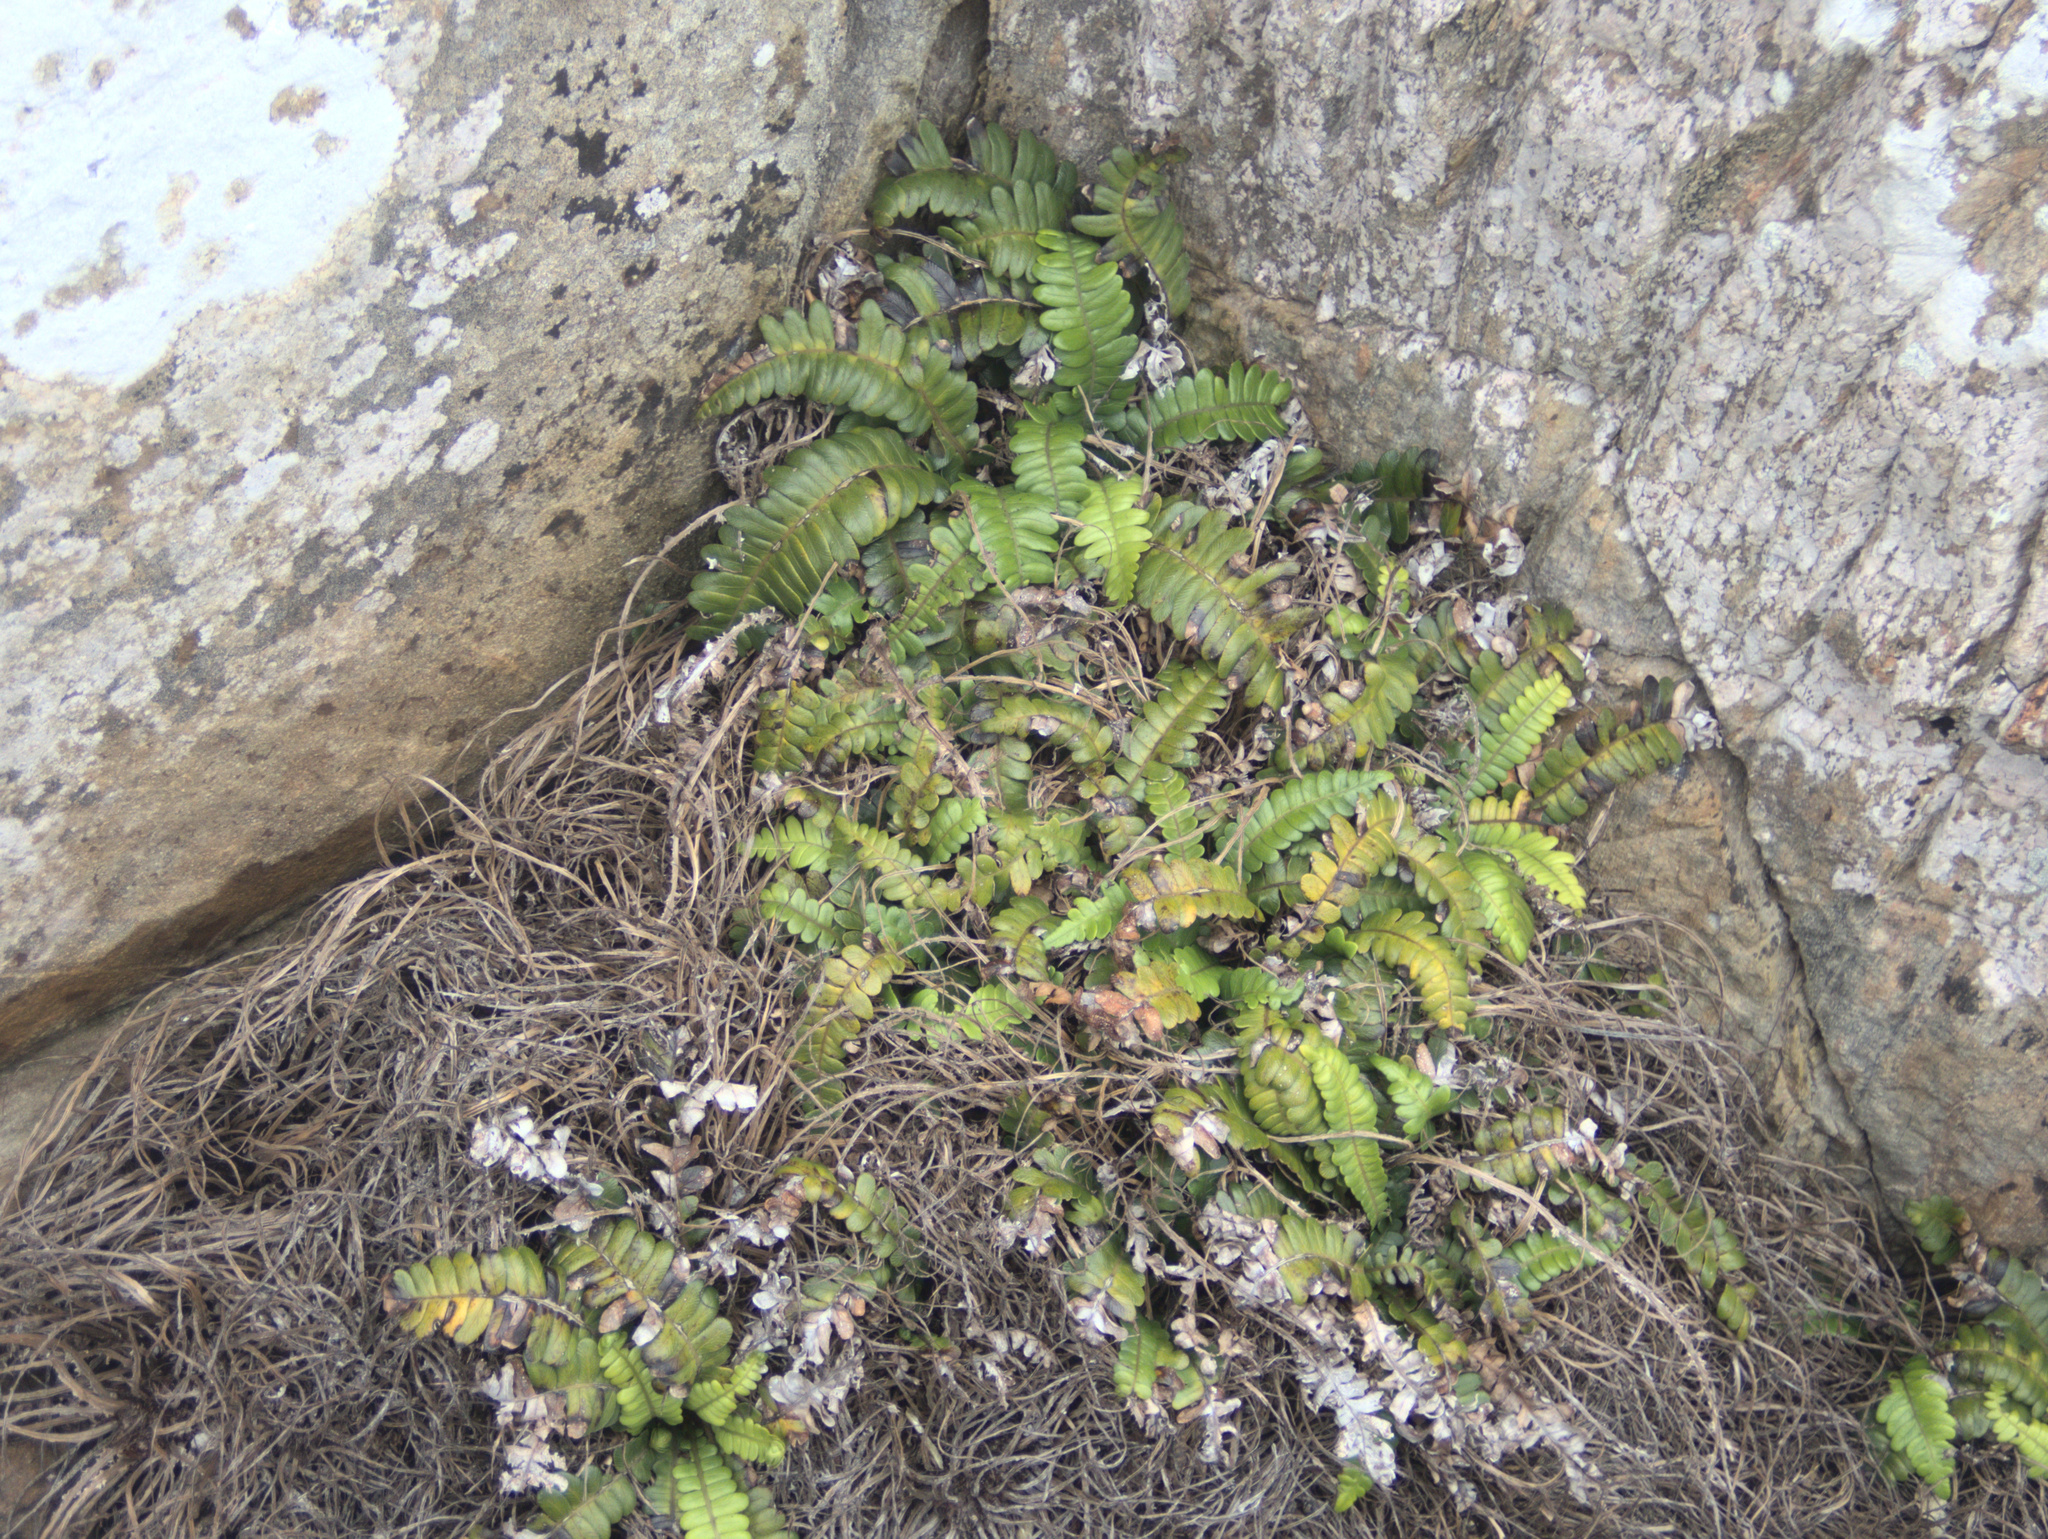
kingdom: Plantae
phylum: Tracheophyta
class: Polypodiopsida
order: Polypodiales
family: Blechnaceae
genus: Austroblechnum
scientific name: Austroblechnum durum
